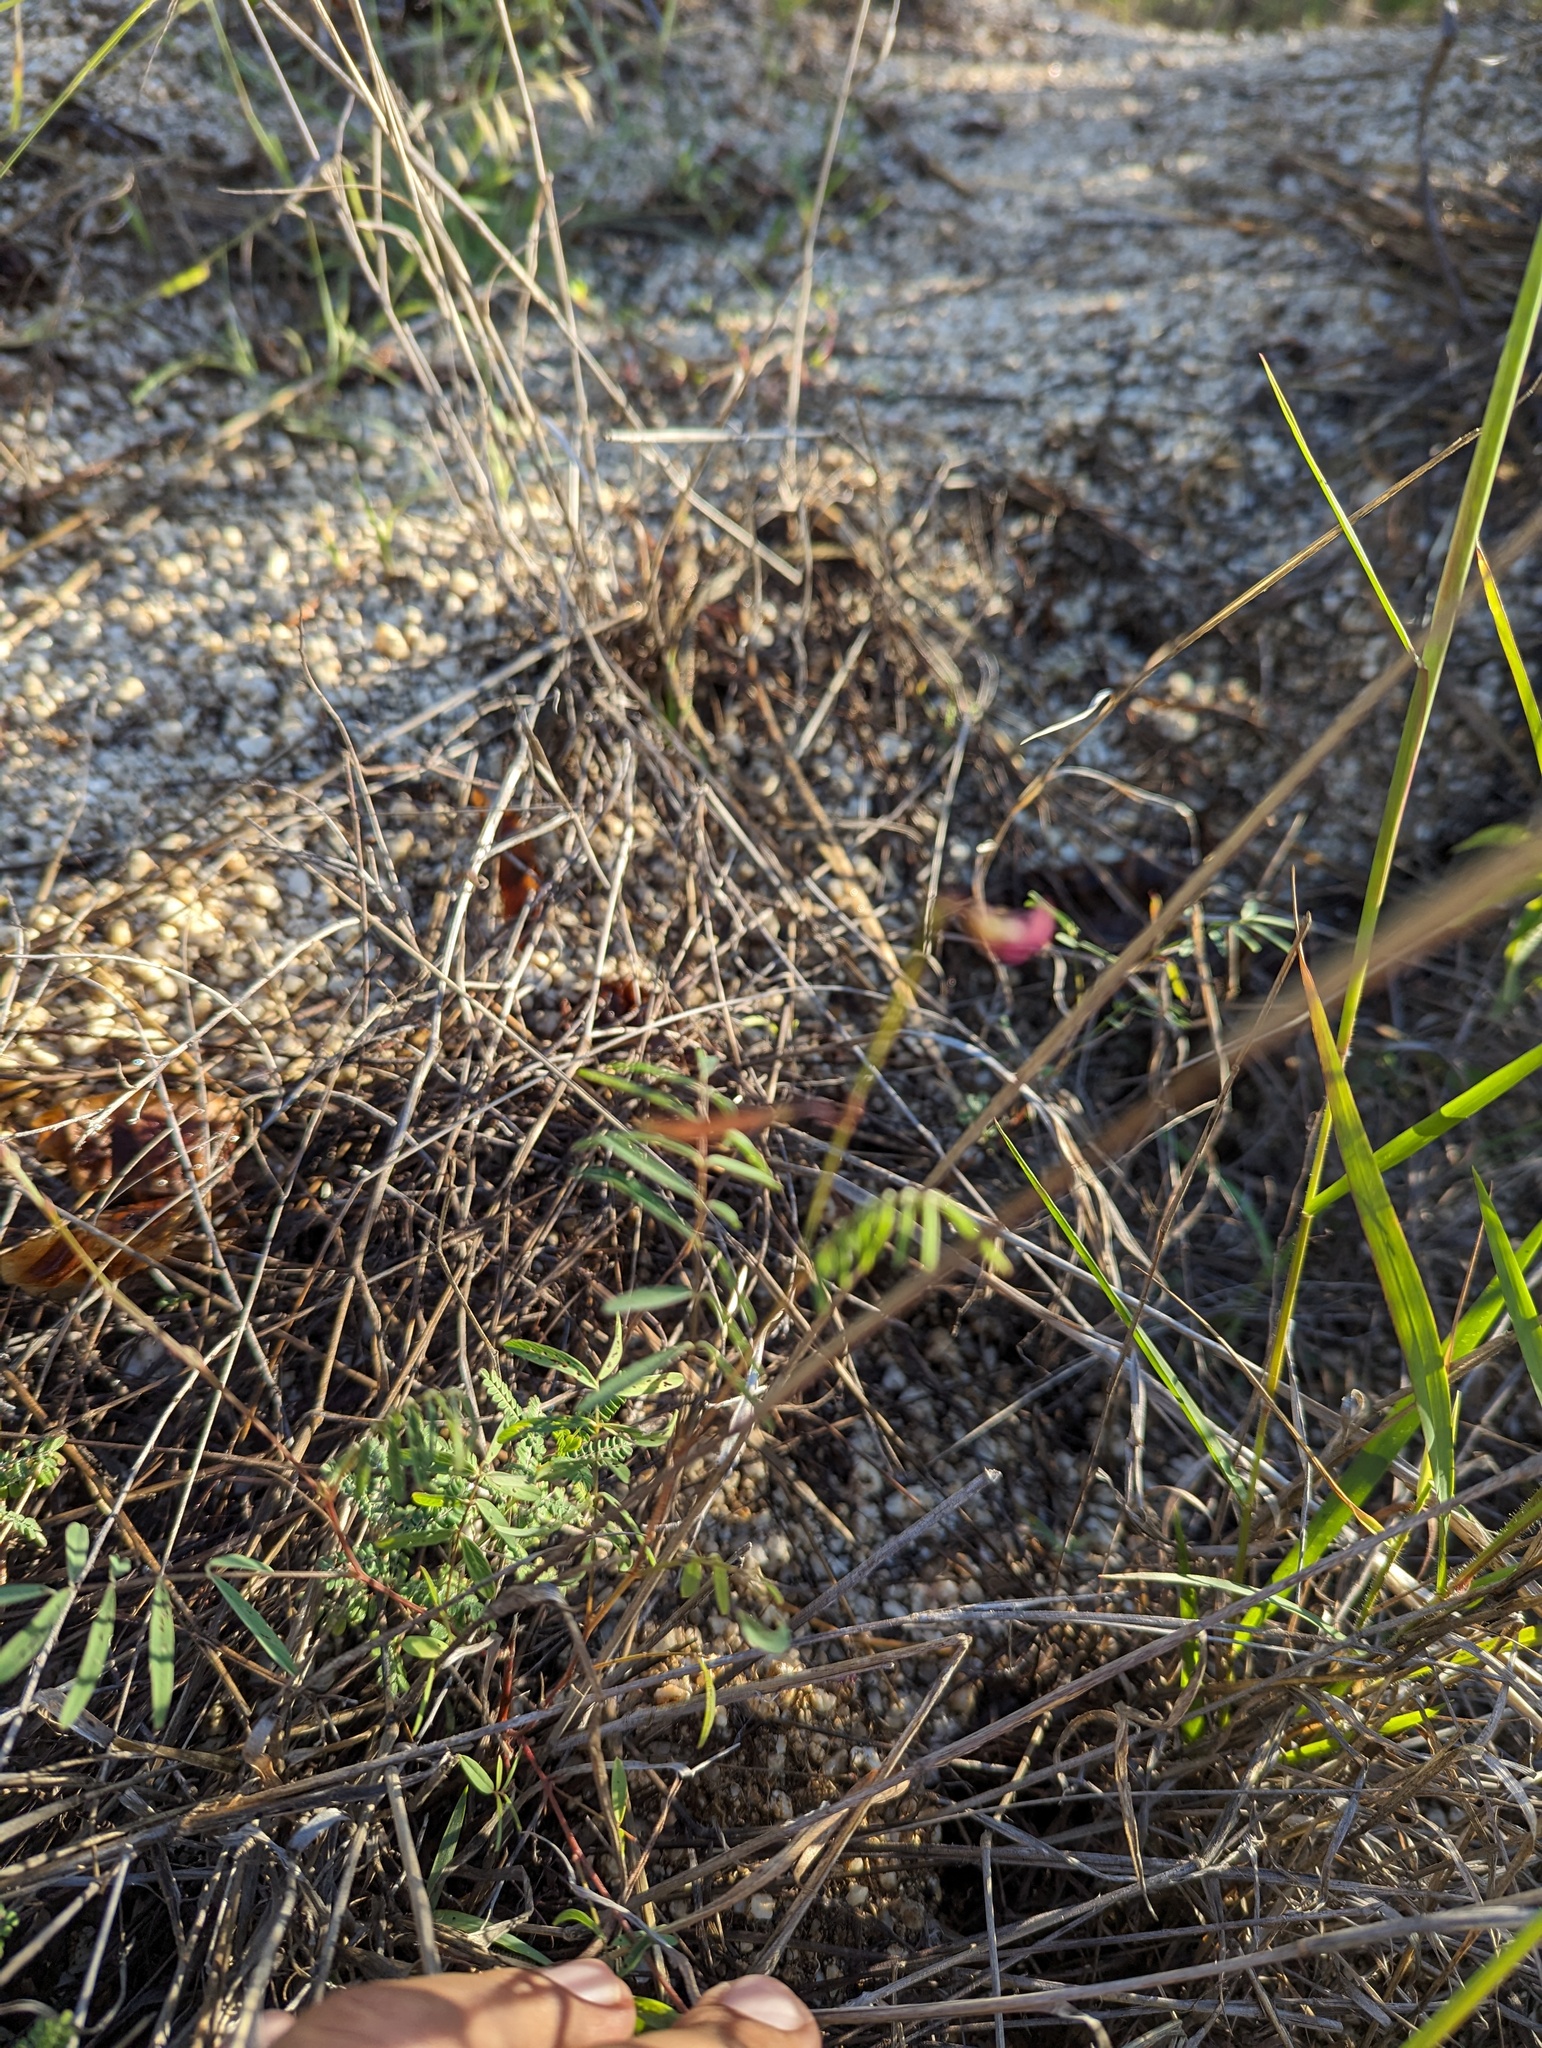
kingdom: Plantae
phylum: Tracheophyta
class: Magnoliopsida
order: Fabales
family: Fabaceae
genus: Tephrosia
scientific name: Tephrosia vicioides
